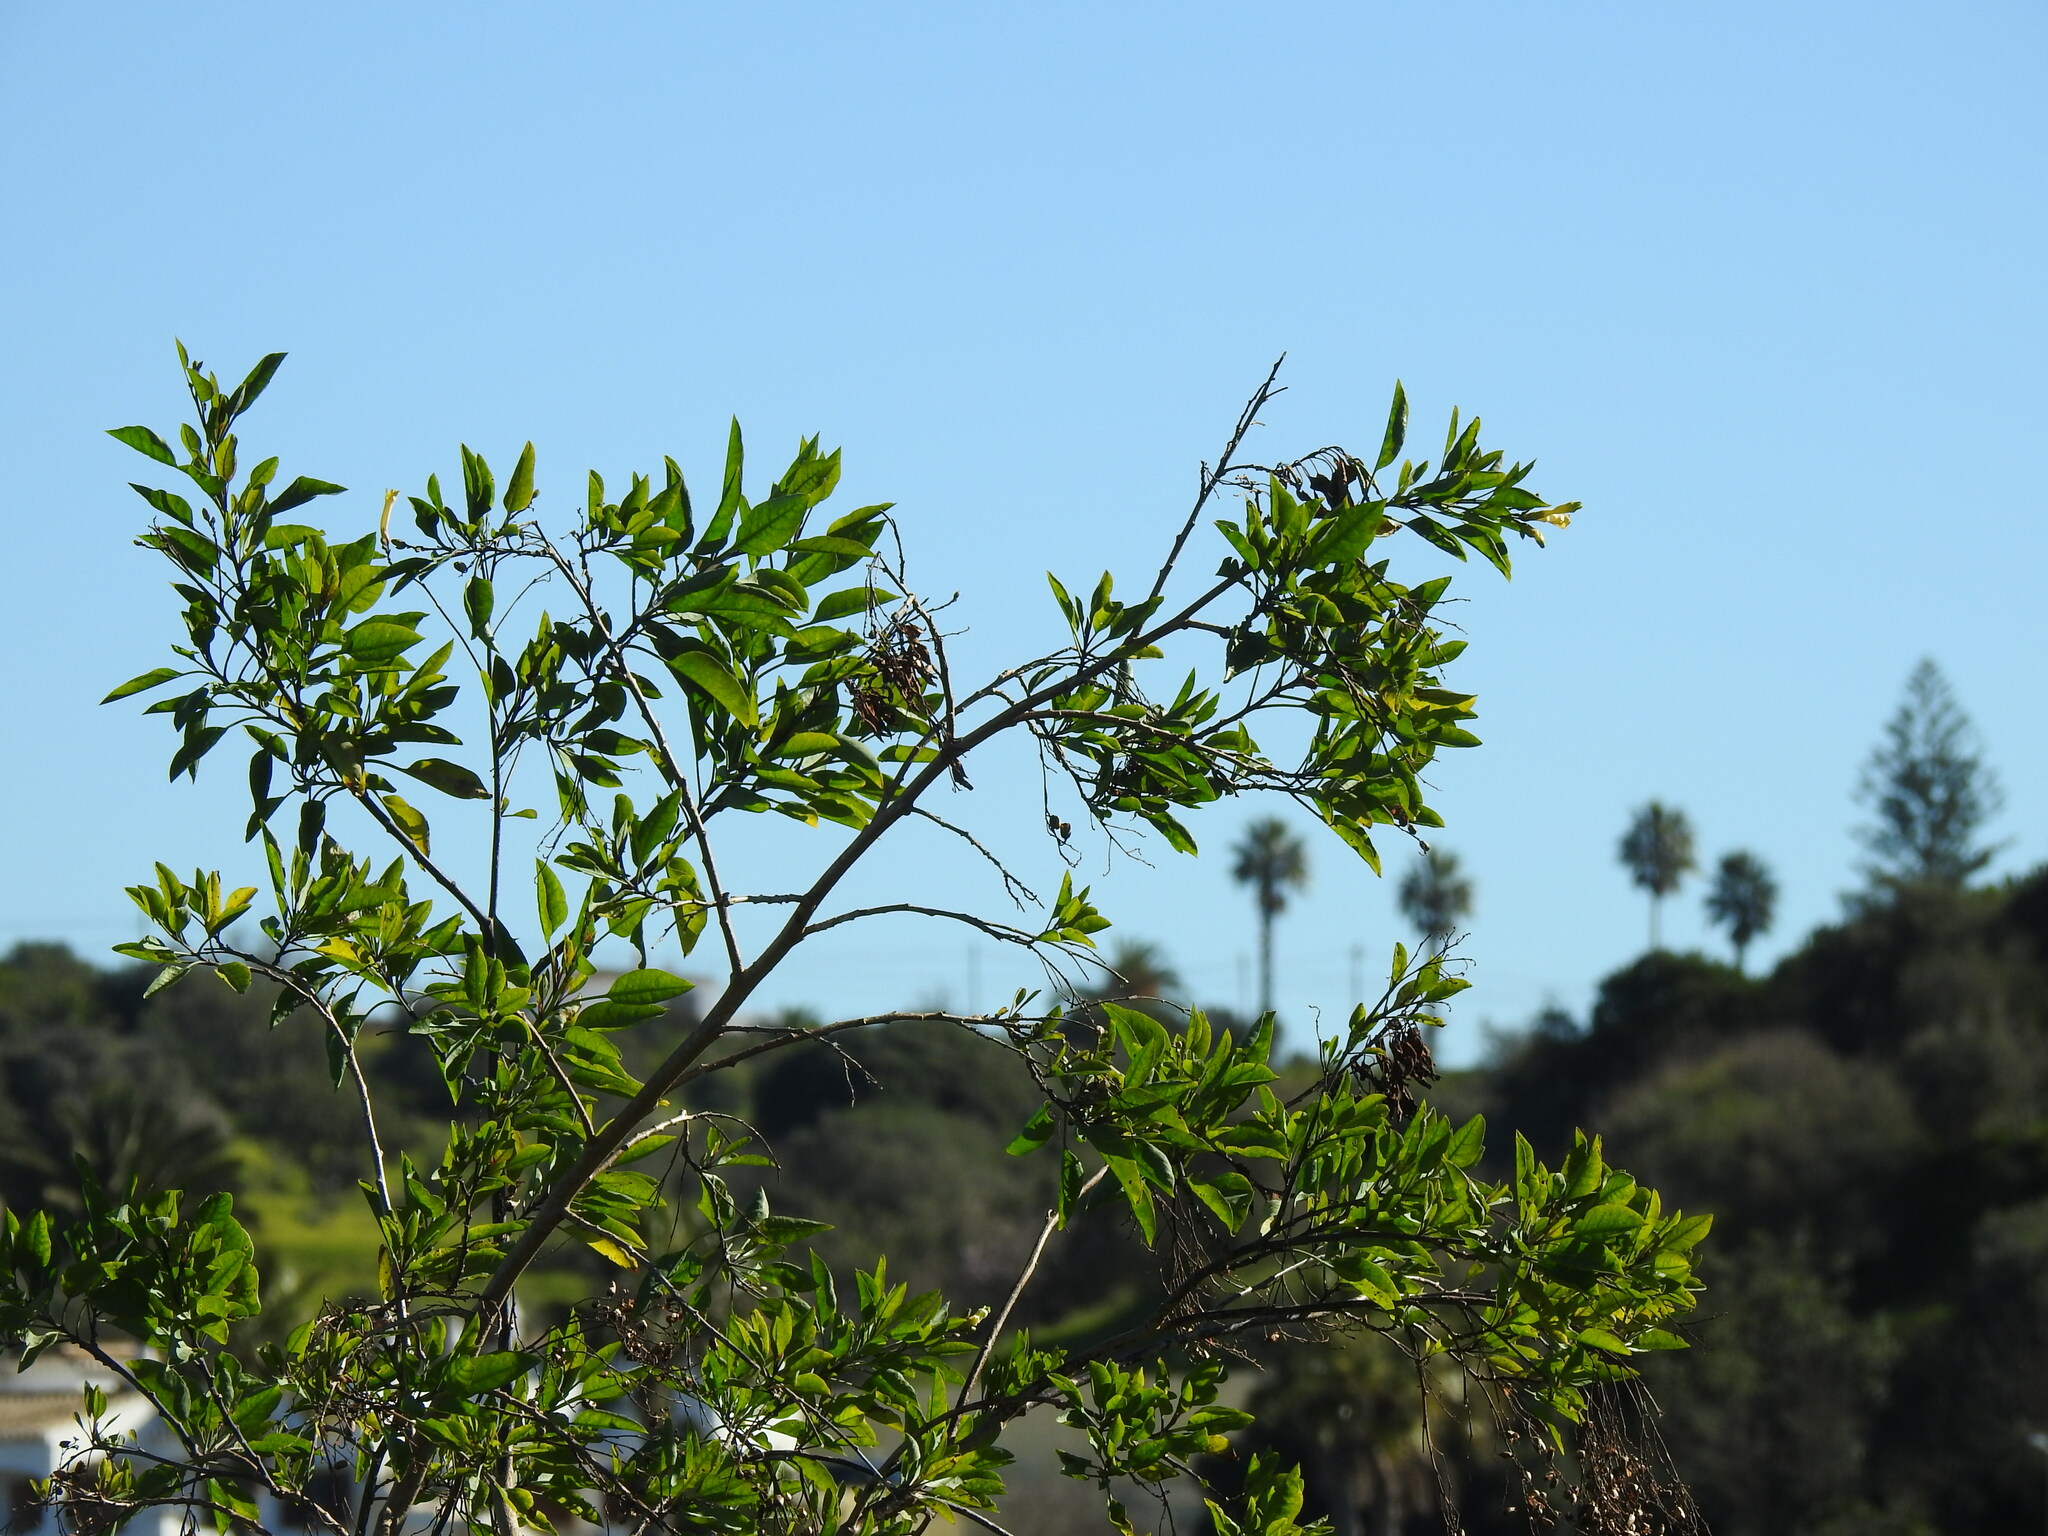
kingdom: Plantae
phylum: Tracheophyta
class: Magnoliopsida
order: Solanales
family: Solanaceae
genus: Nicotiana
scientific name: Nicotiana glauca
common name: Tree tobacco
